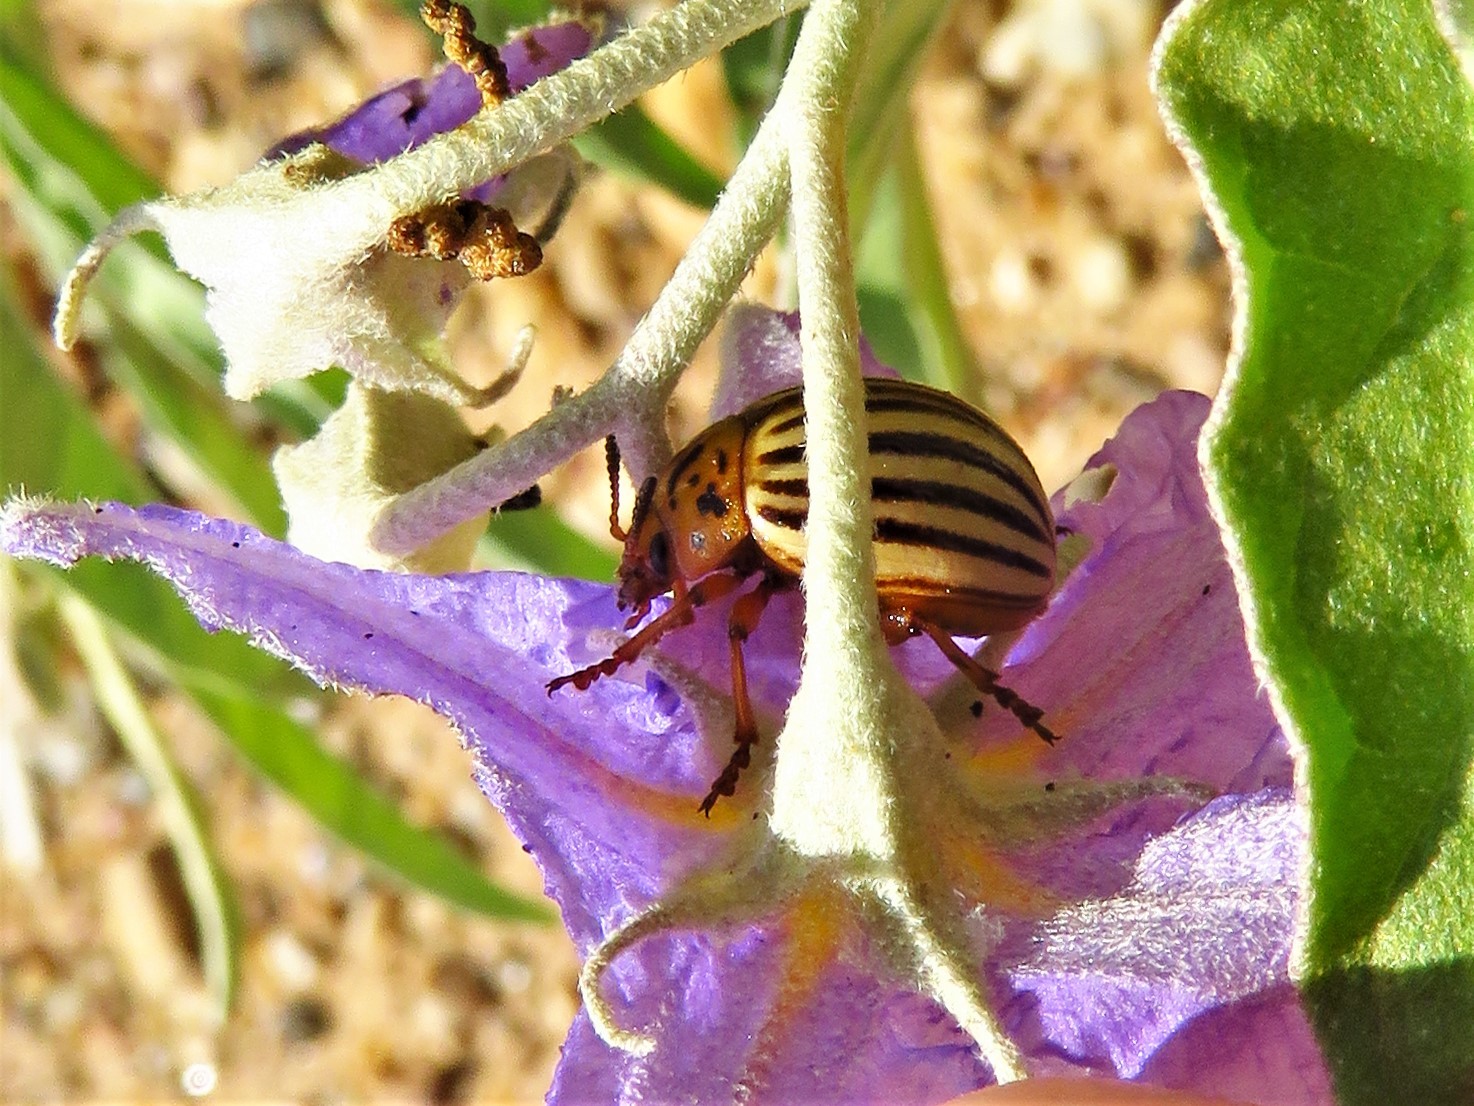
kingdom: Animalia
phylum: Arthropoda
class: Insecta
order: Coleoptera
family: Chrysomelidae
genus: Leptinotarsa
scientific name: Leptinotarsa decemlineata
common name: Colorado potato beetle
